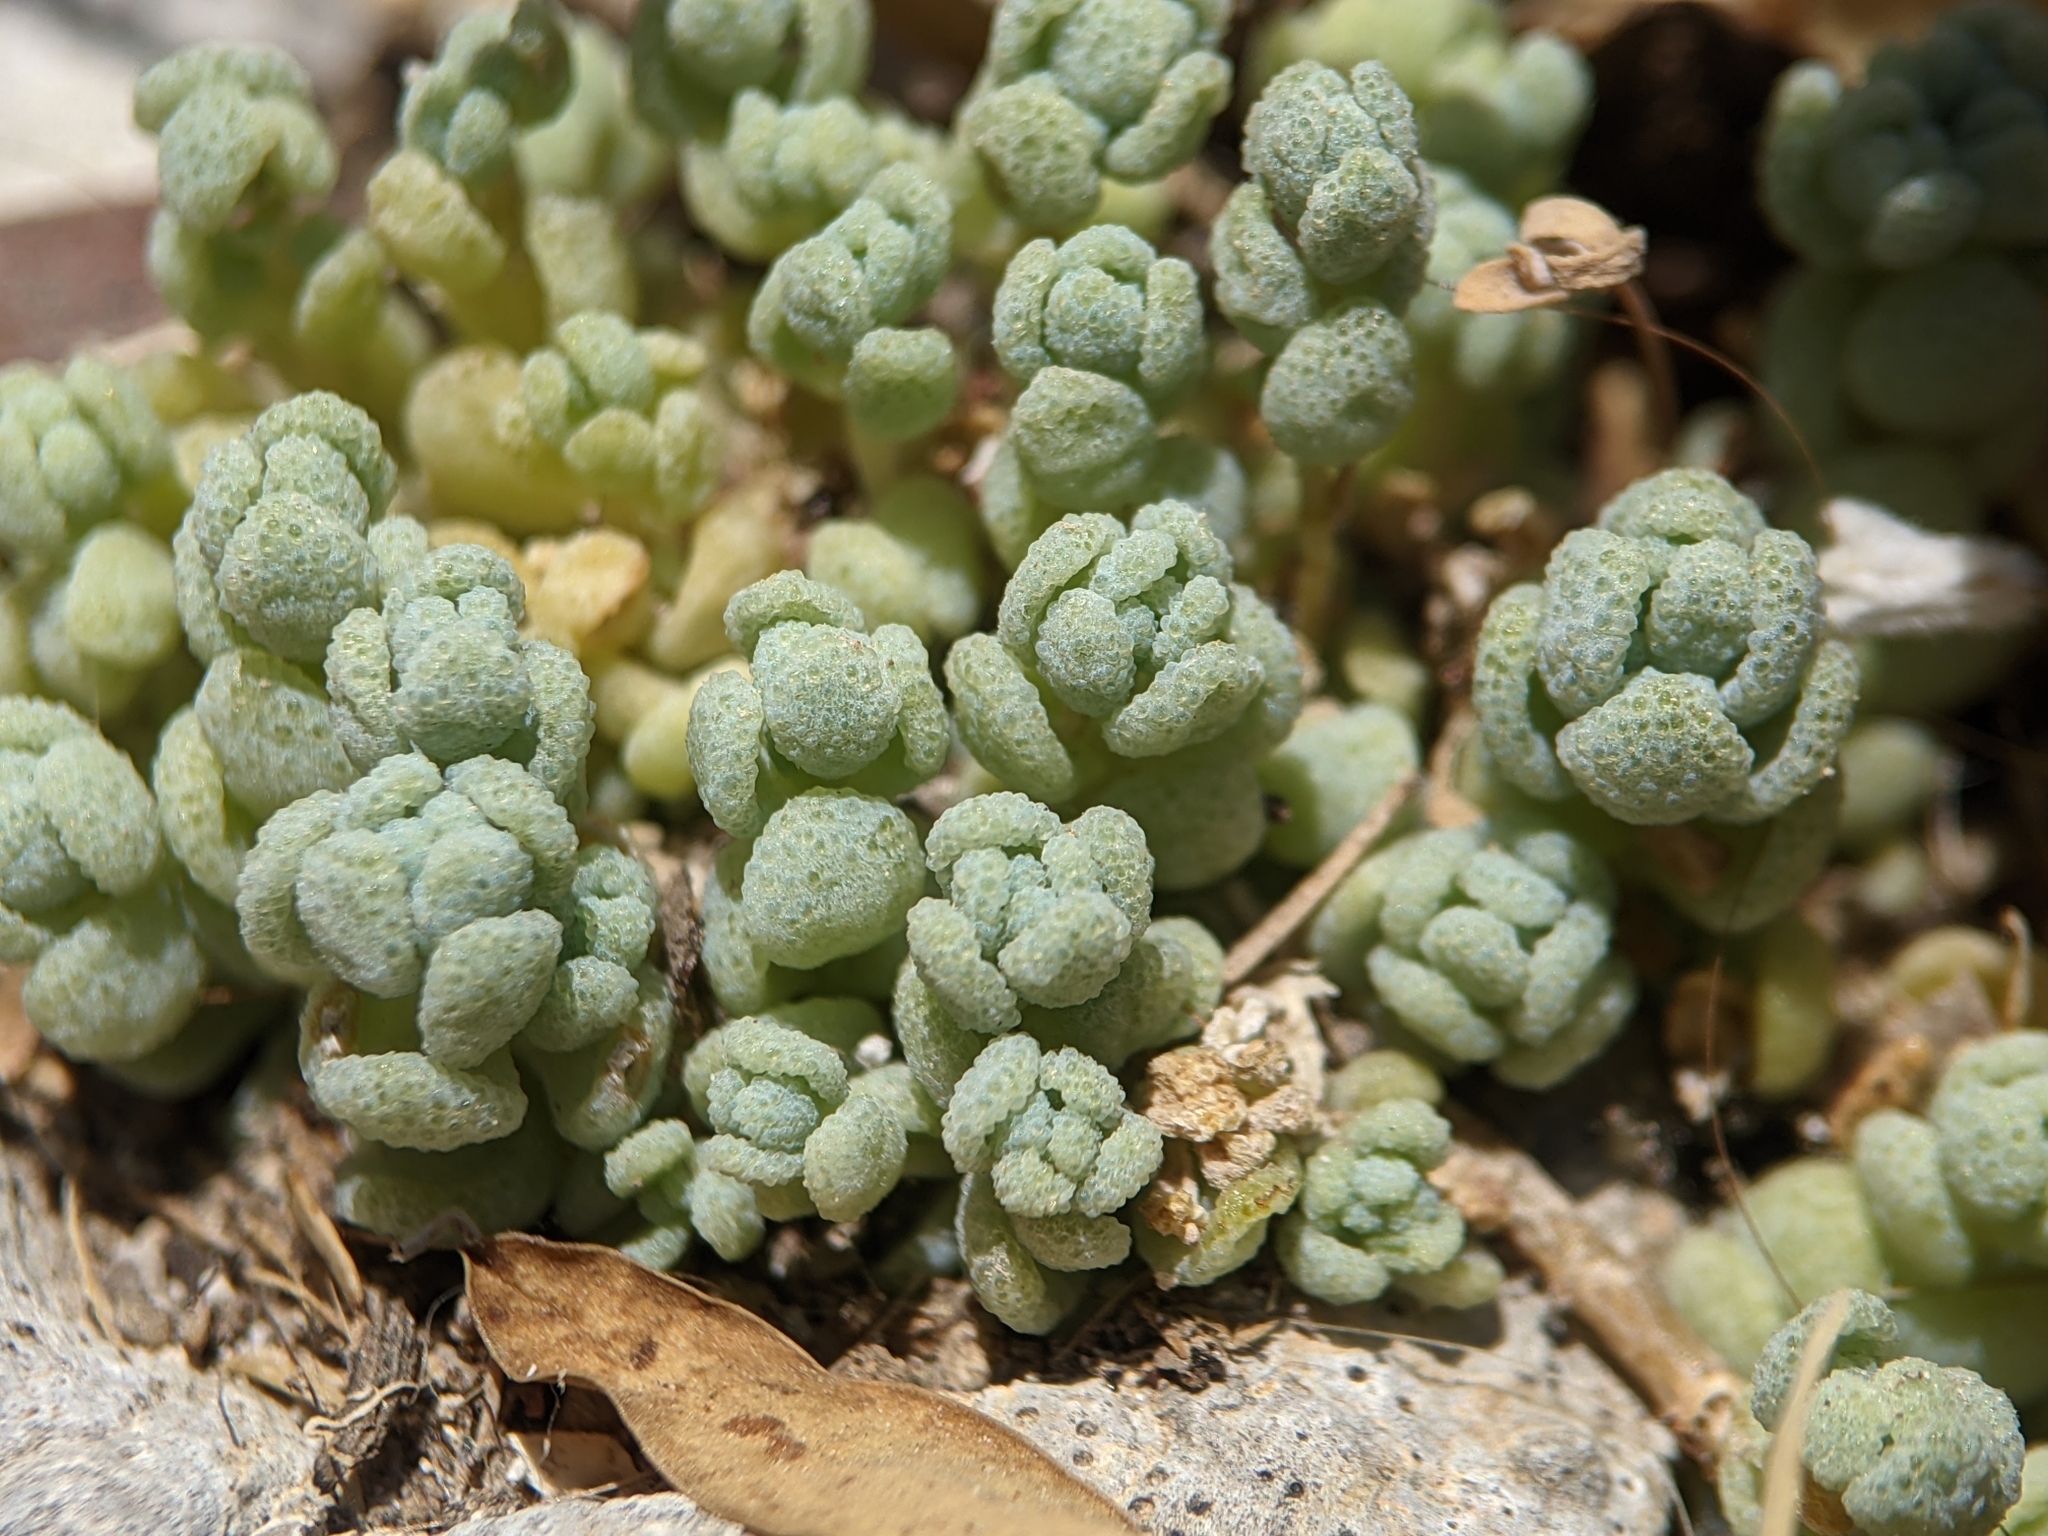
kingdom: Plantae
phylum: Tracheophyta
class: Magnoliopsida
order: Saxifragales
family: Crassulaceae
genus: Sedum
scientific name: Sedum dasyphyllum
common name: Thick-leaf stonecrop
